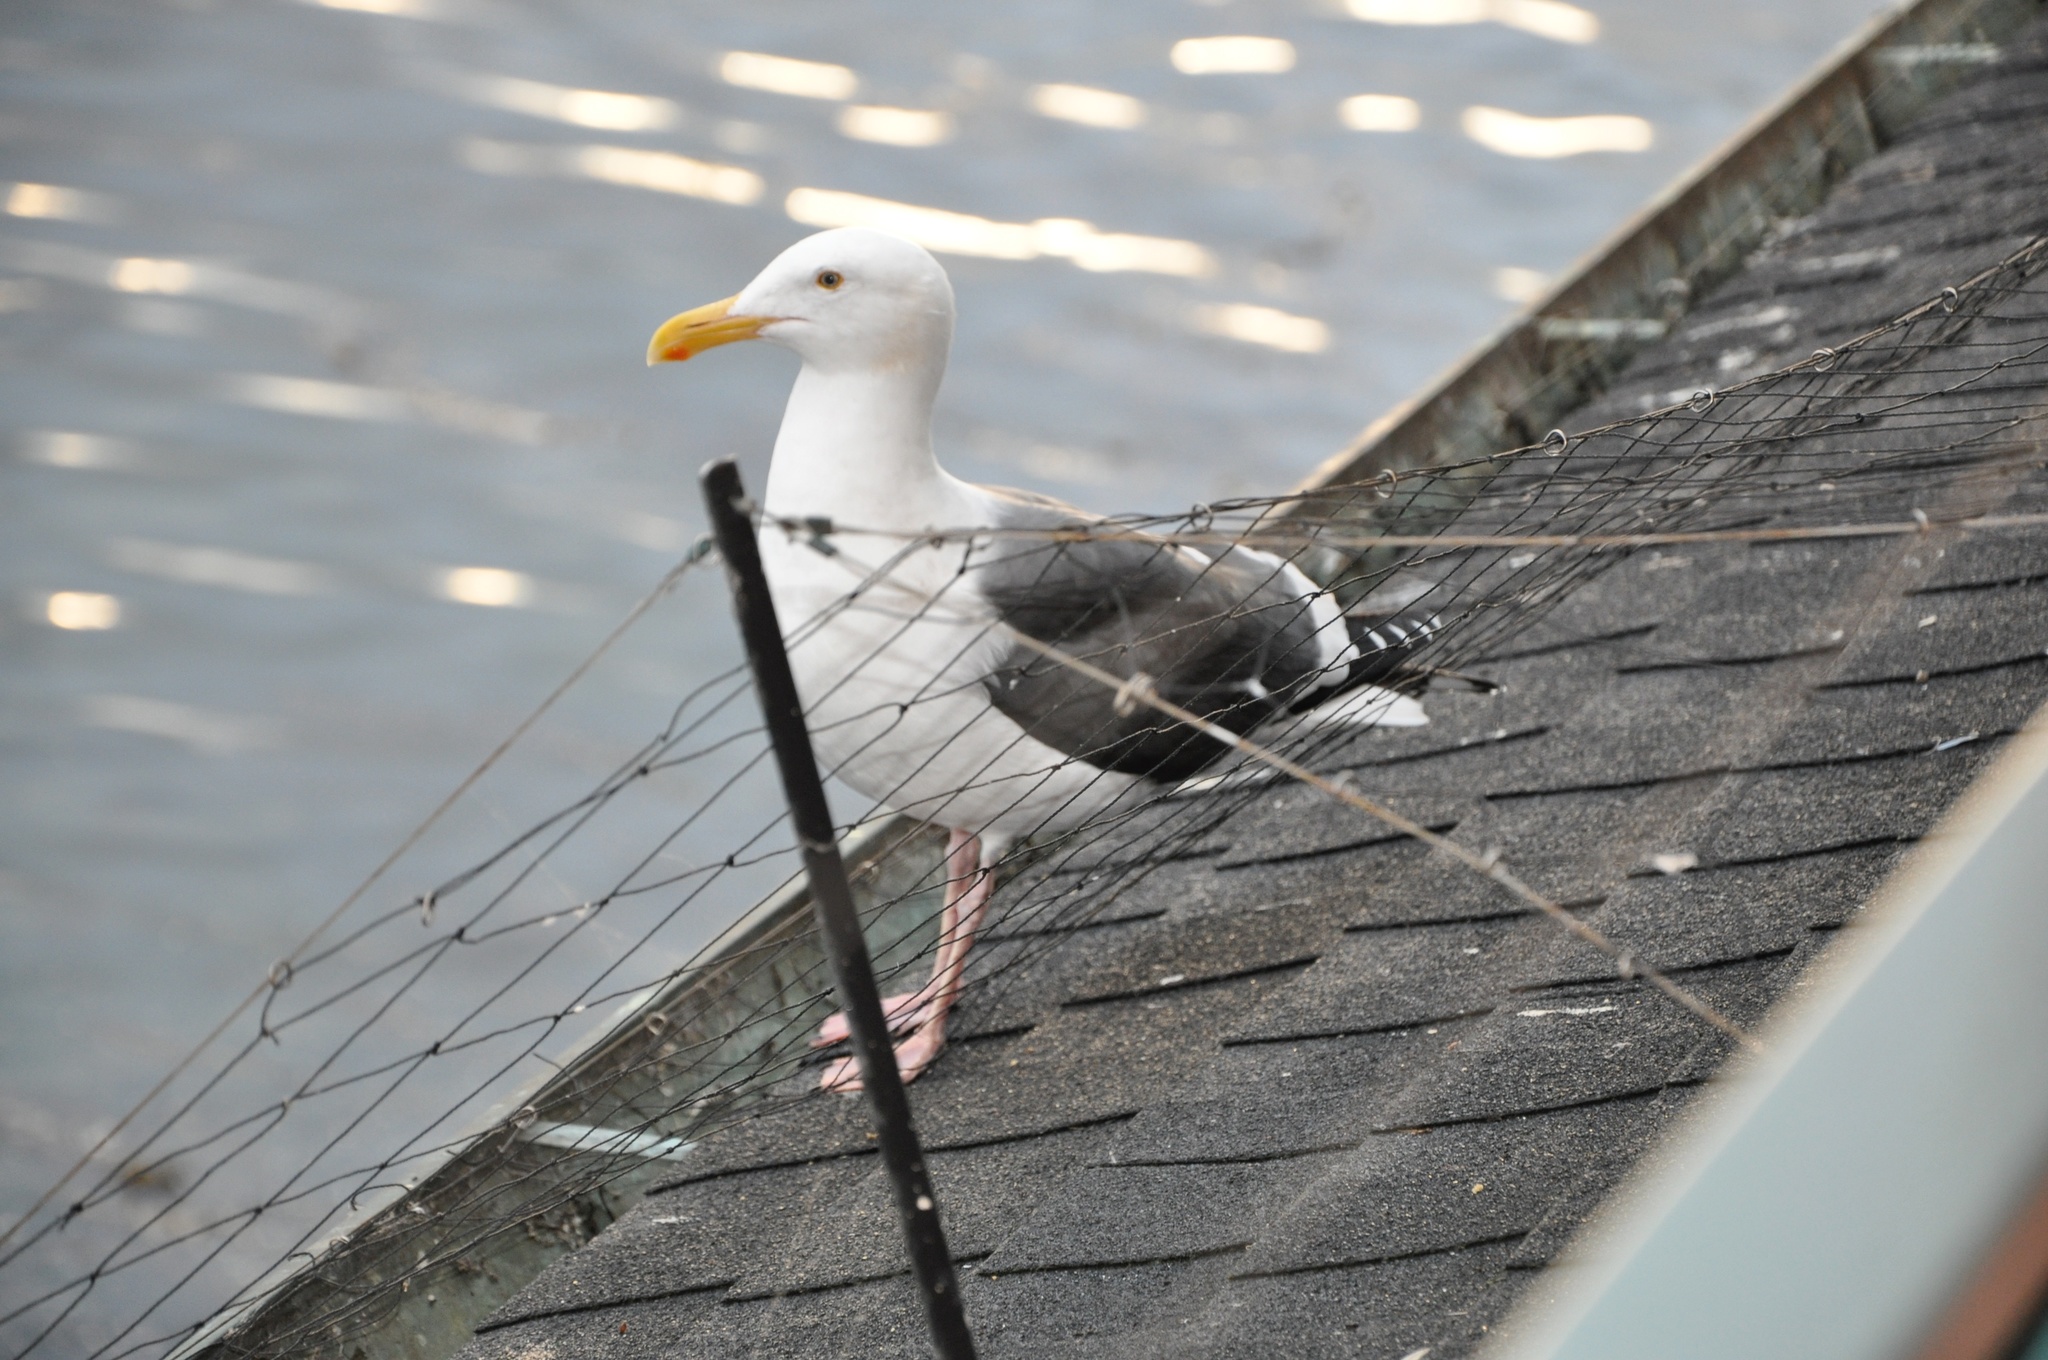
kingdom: Animalia
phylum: Chordata
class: Aves
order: Charadriiformes
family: Laridae
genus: Larus
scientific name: Larus occidentalis
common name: Western gull
